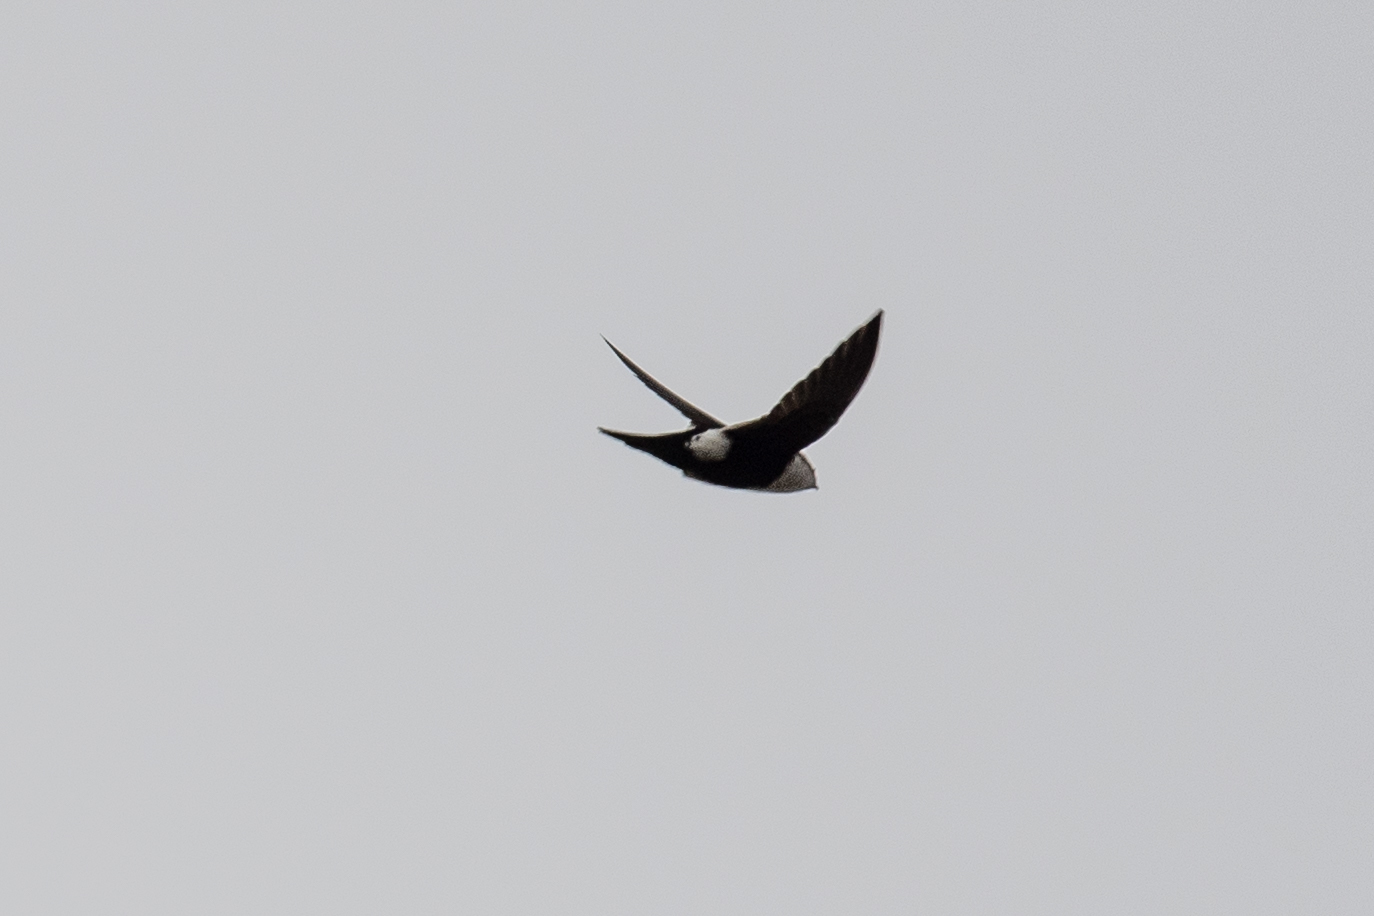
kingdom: Animalia
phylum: Chordata
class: Aves
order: Apodiformes
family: Apodidae
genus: Aeronautes
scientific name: Aeronautes saxatalis
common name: White-throated swift
